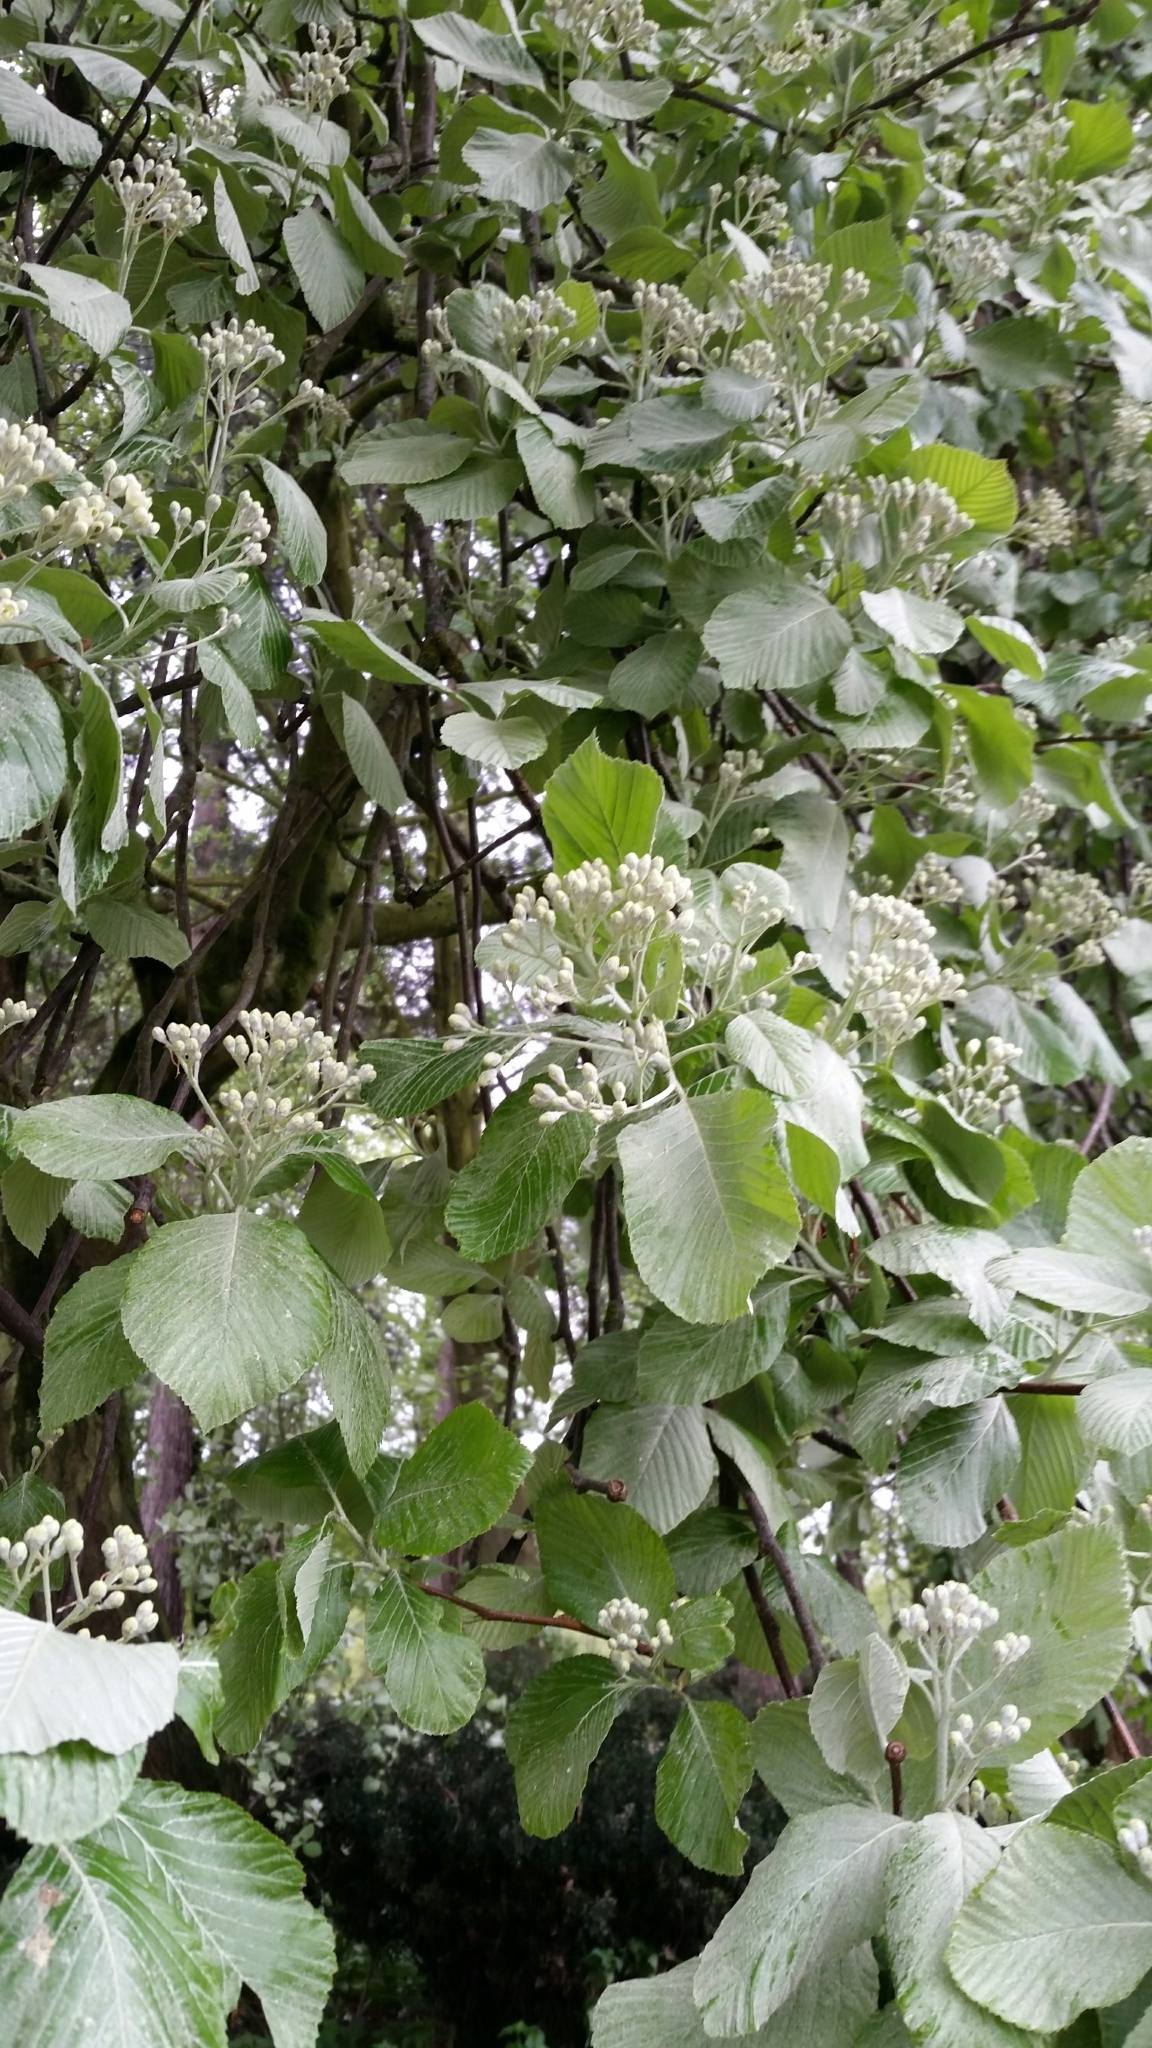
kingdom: Plantae
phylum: Tracheophyta
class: Magnoliopsida
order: Rosales
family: Rosaceae
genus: Aria
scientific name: Aria edulis
